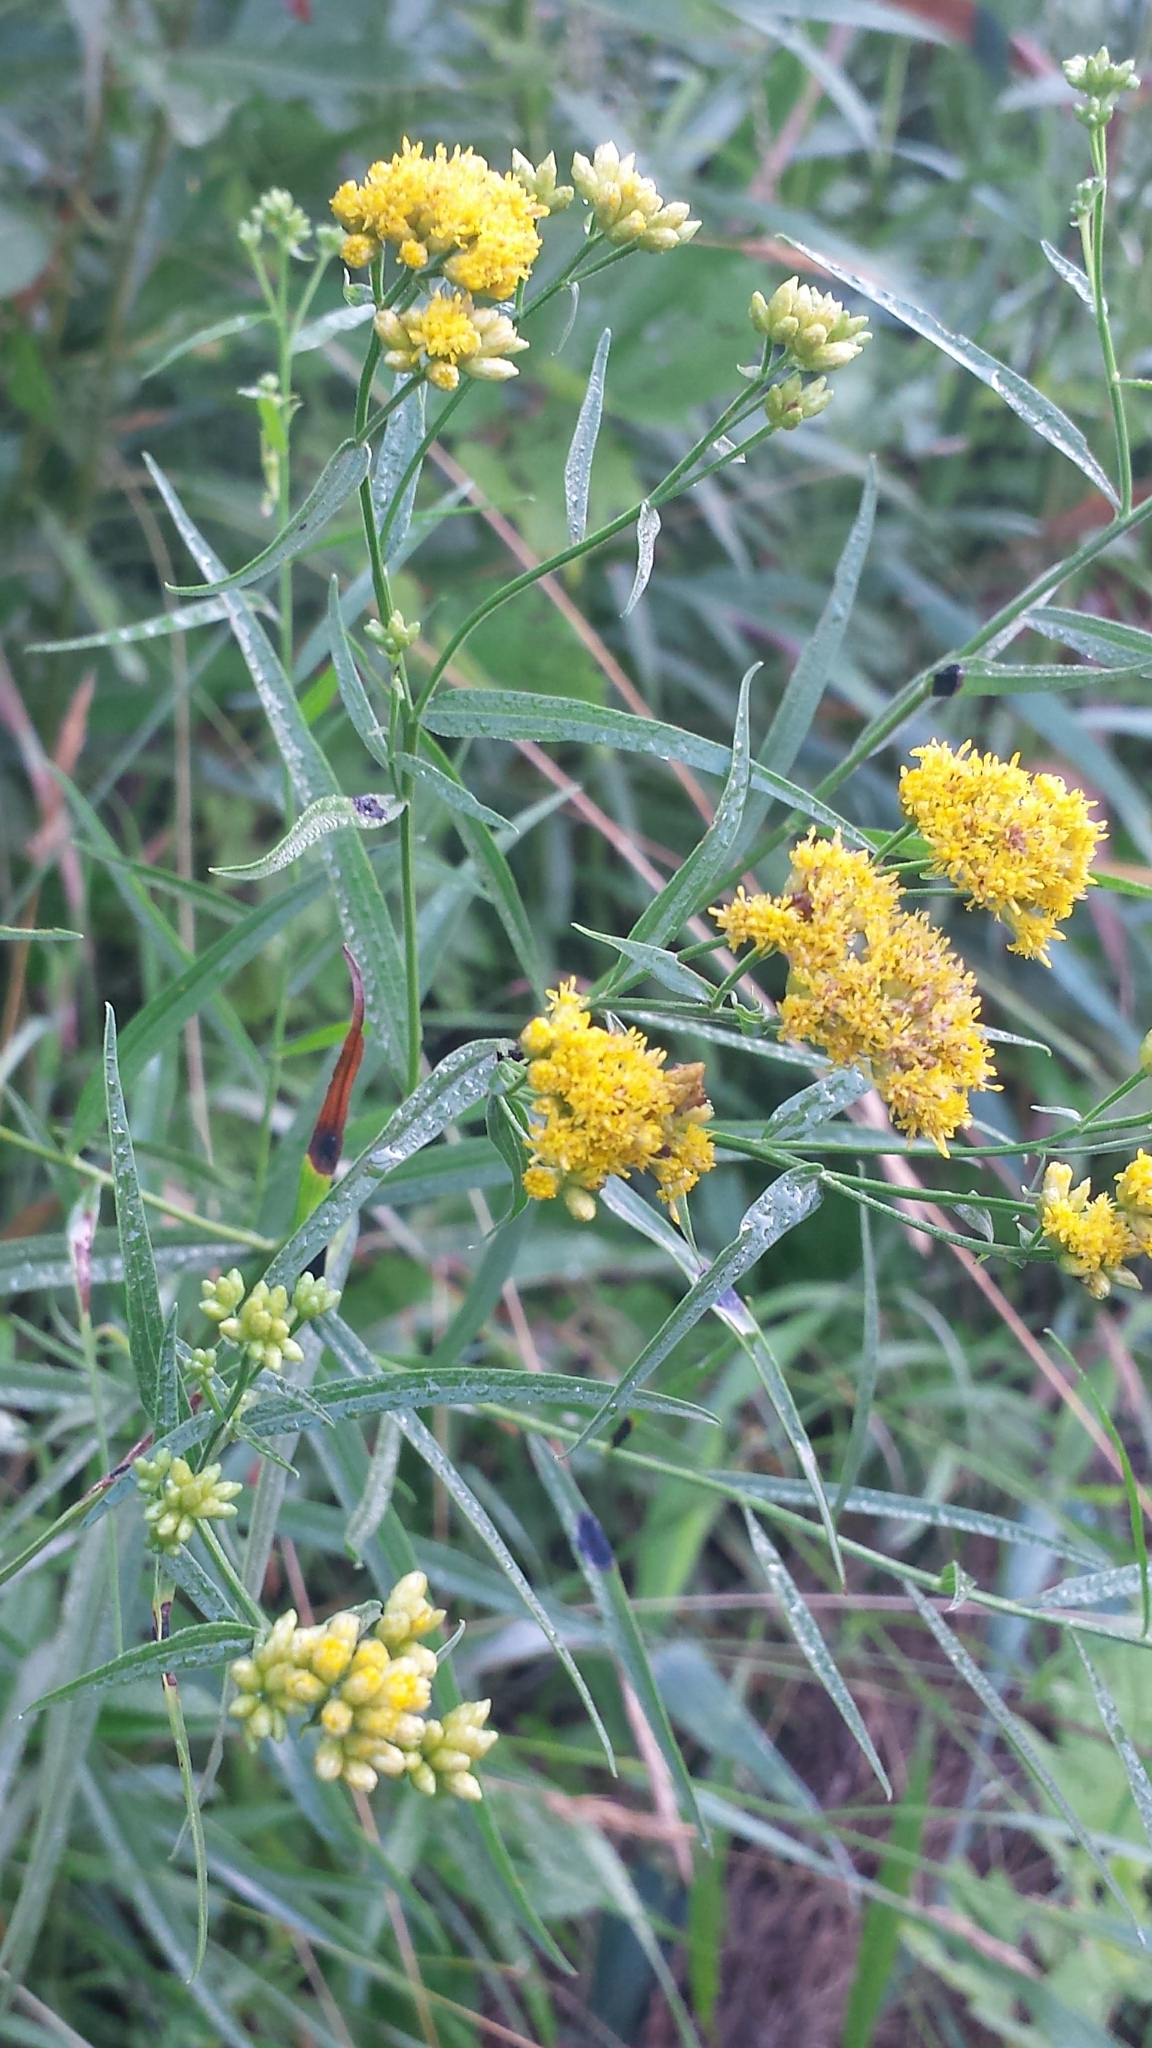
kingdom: Plantae
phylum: Tracheophyta
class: Magnoliopsida
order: Asterales
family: Asteraceae
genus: Euthamia
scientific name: Euthamia graminifolia
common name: Common goldentop
